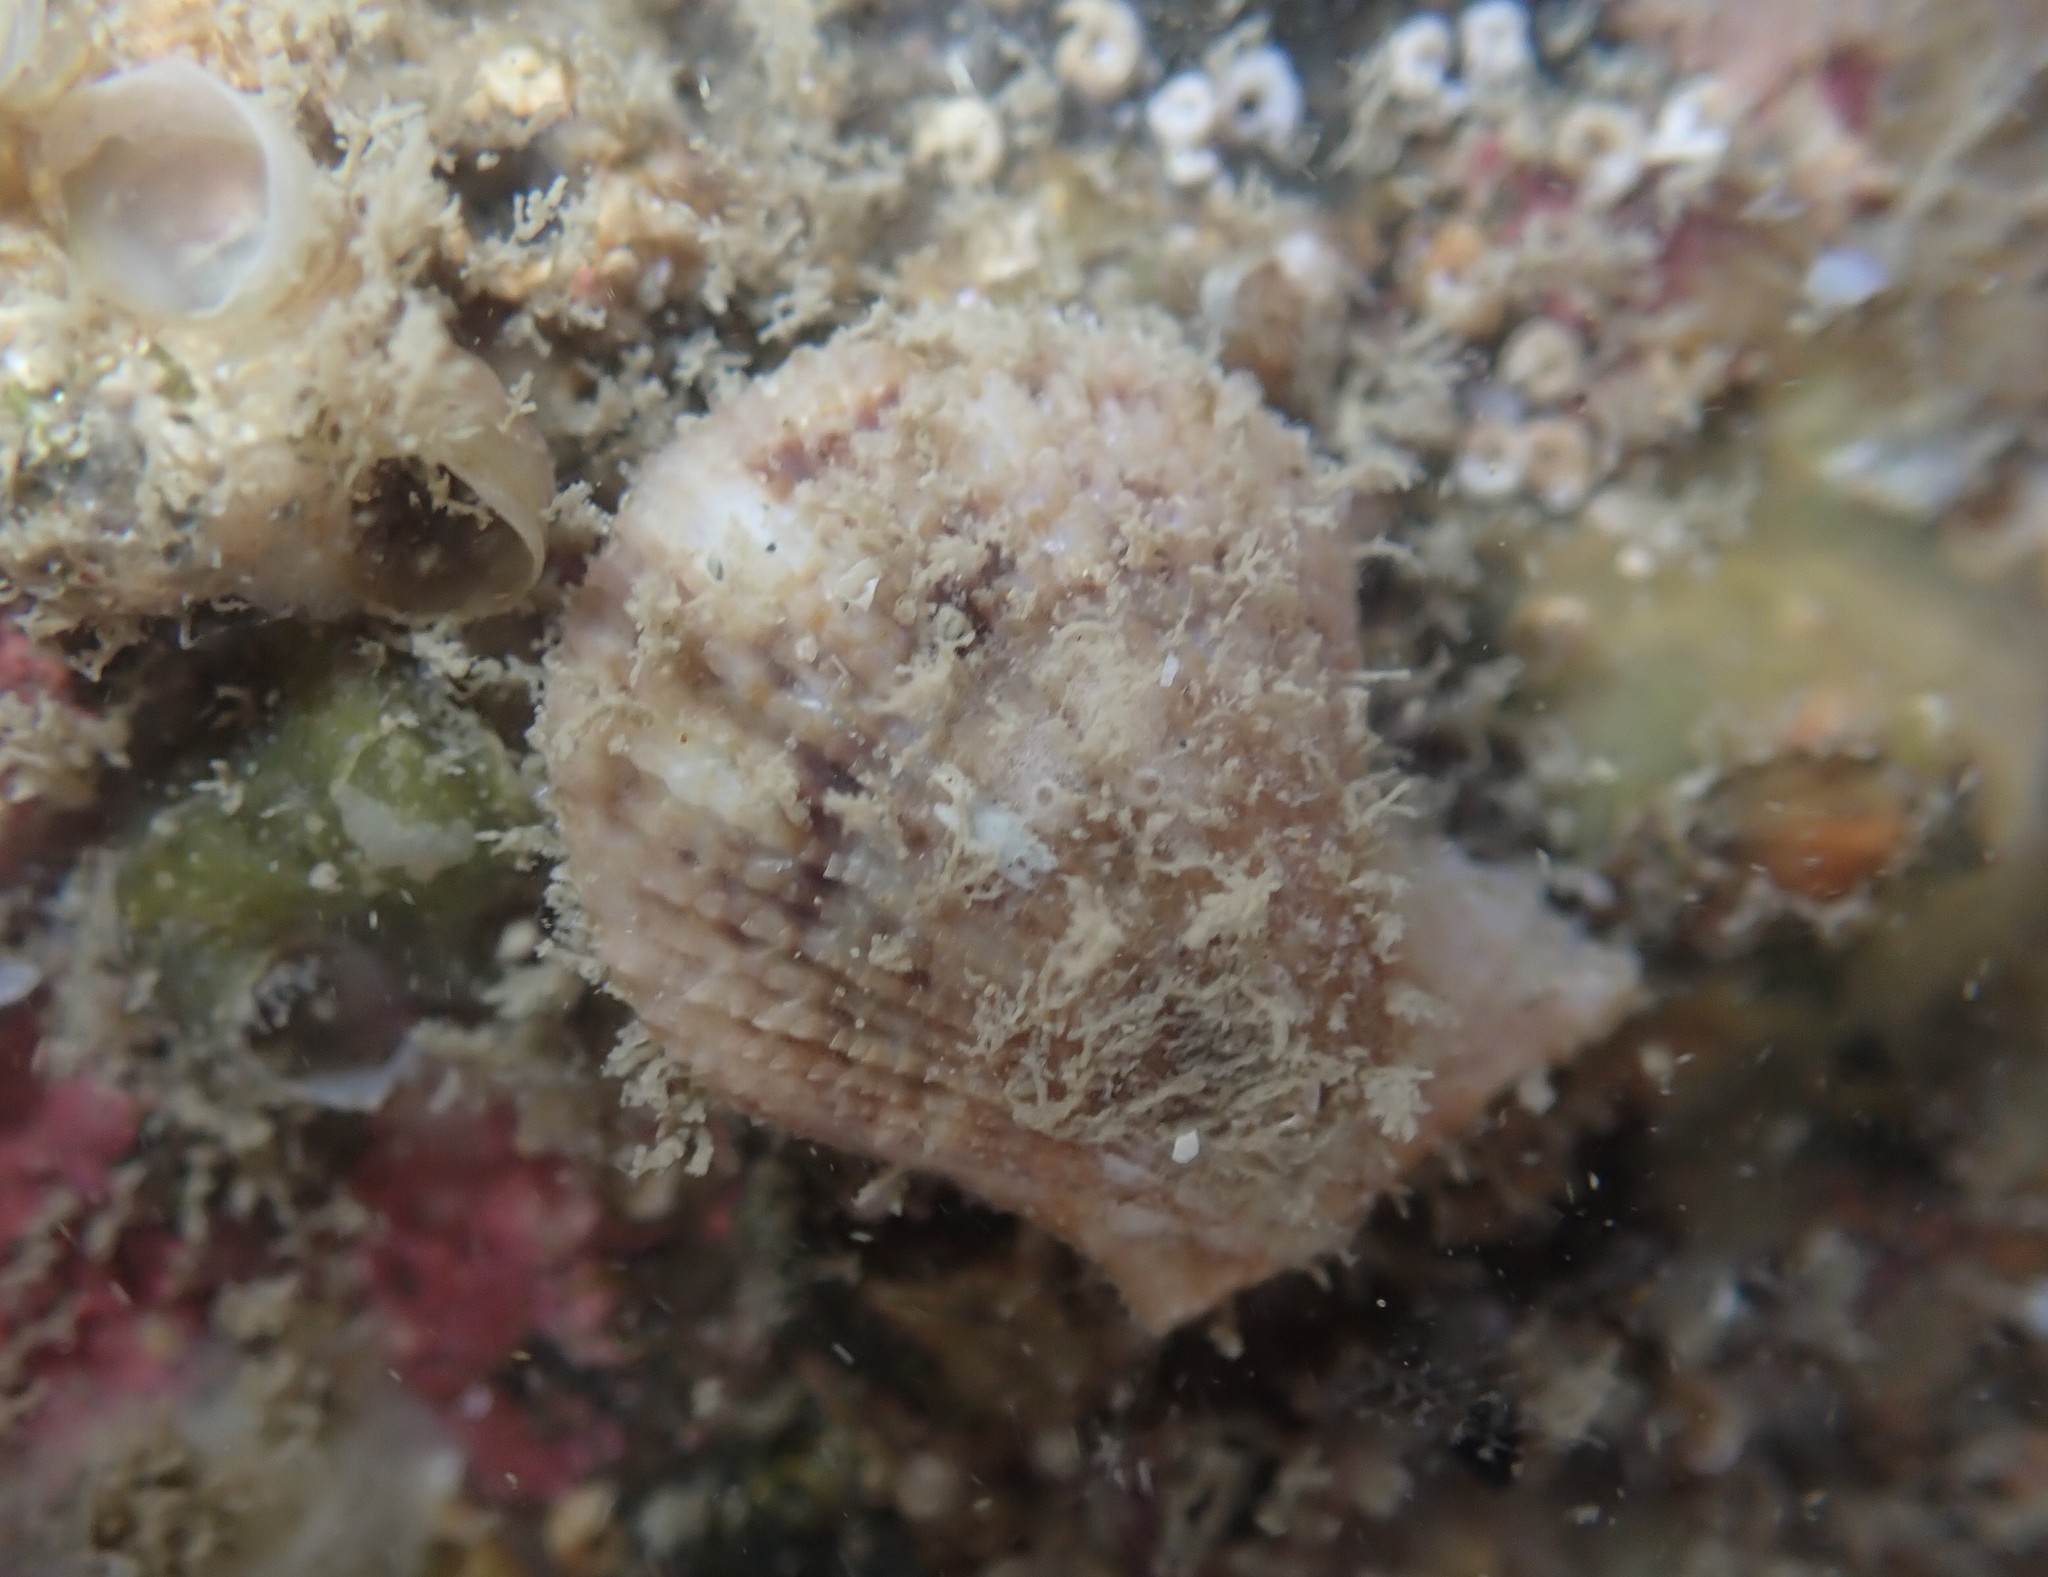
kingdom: Animalia
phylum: Mollusca
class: Bivalvia
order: Pectinida
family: Pectinidae
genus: Talochlamys
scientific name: Talochlamys zelandiae
